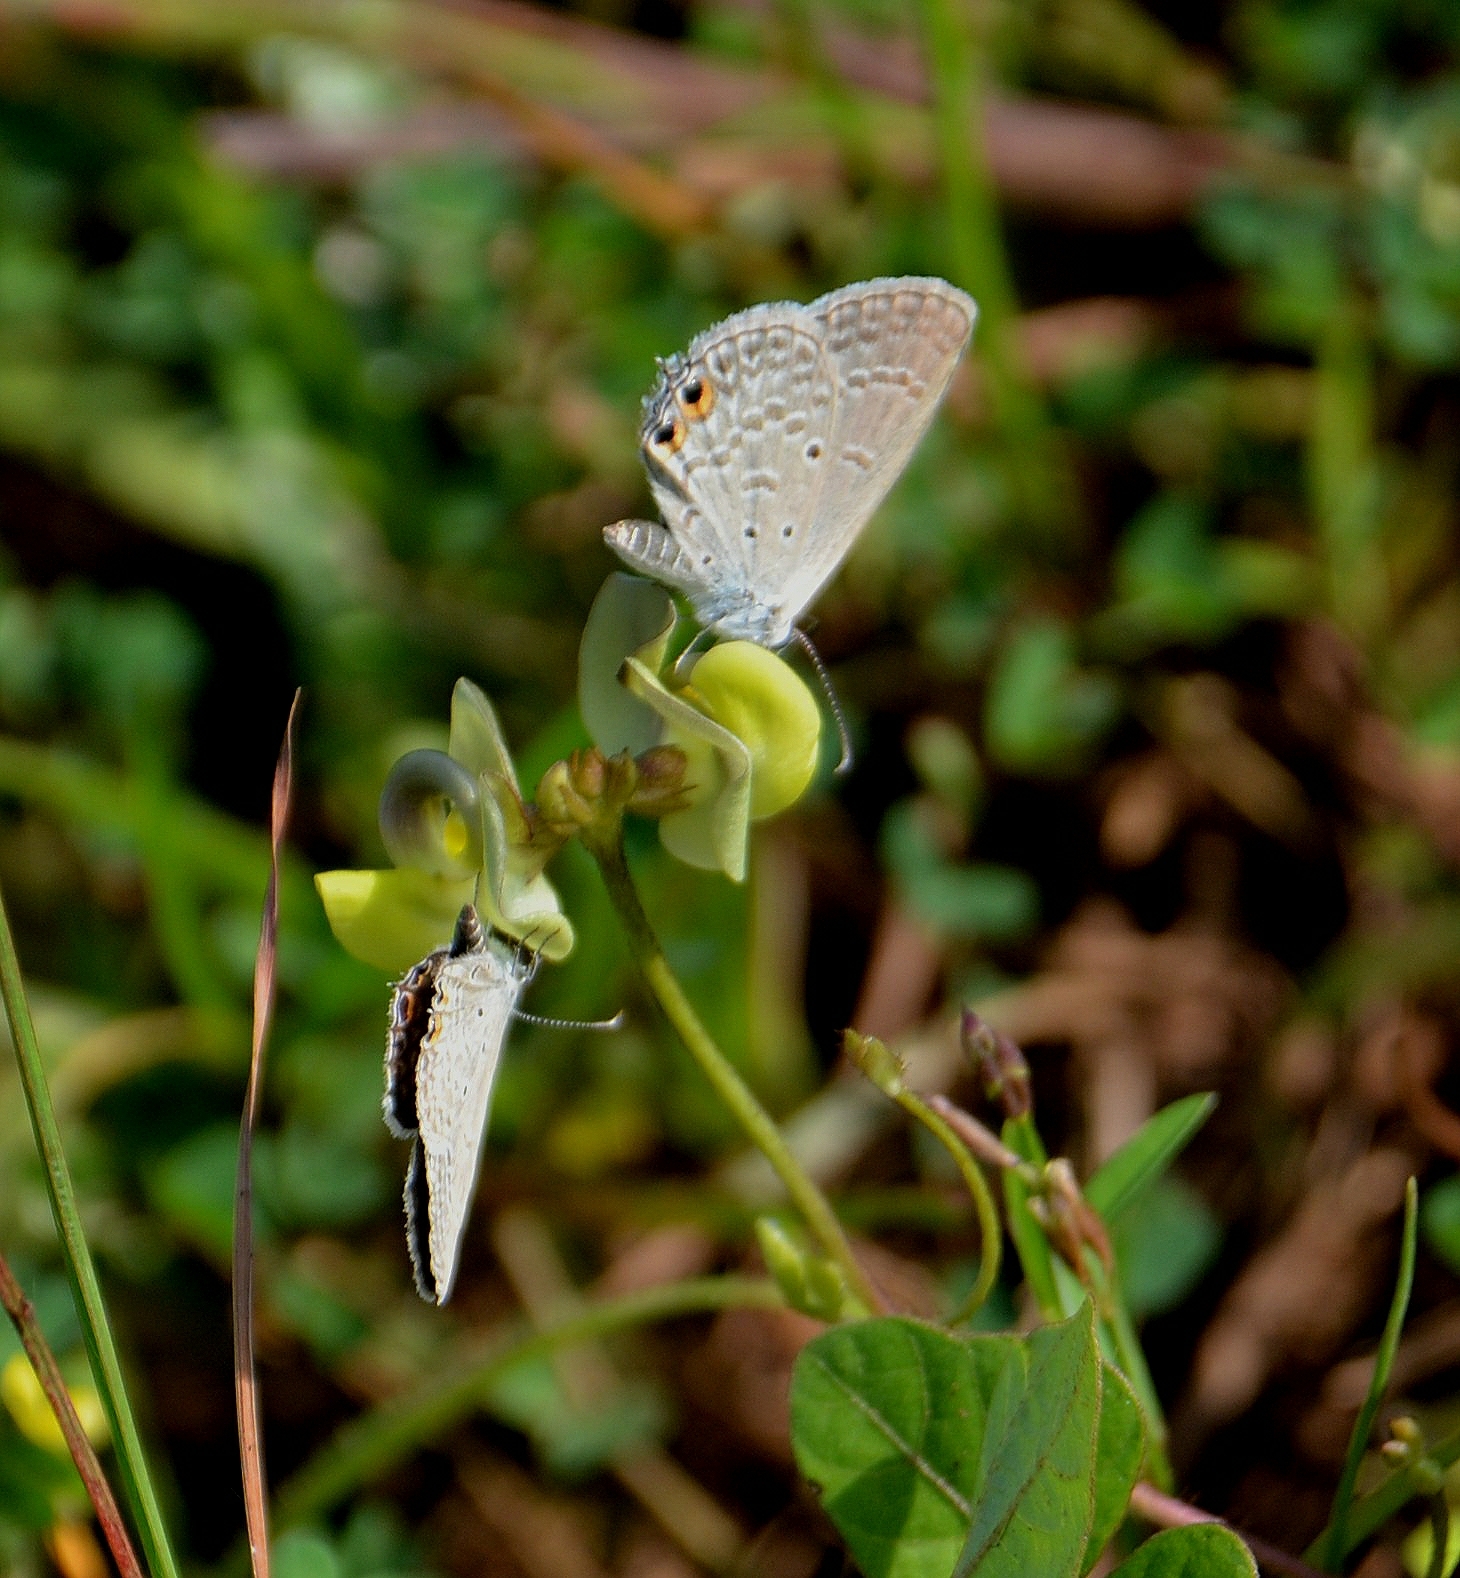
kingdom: Animalia
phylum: Arthropoda
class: Insecta
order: Lepidoptera
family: Lycaenidae
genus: Euchrysops
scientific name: Euchrysops cnejus
